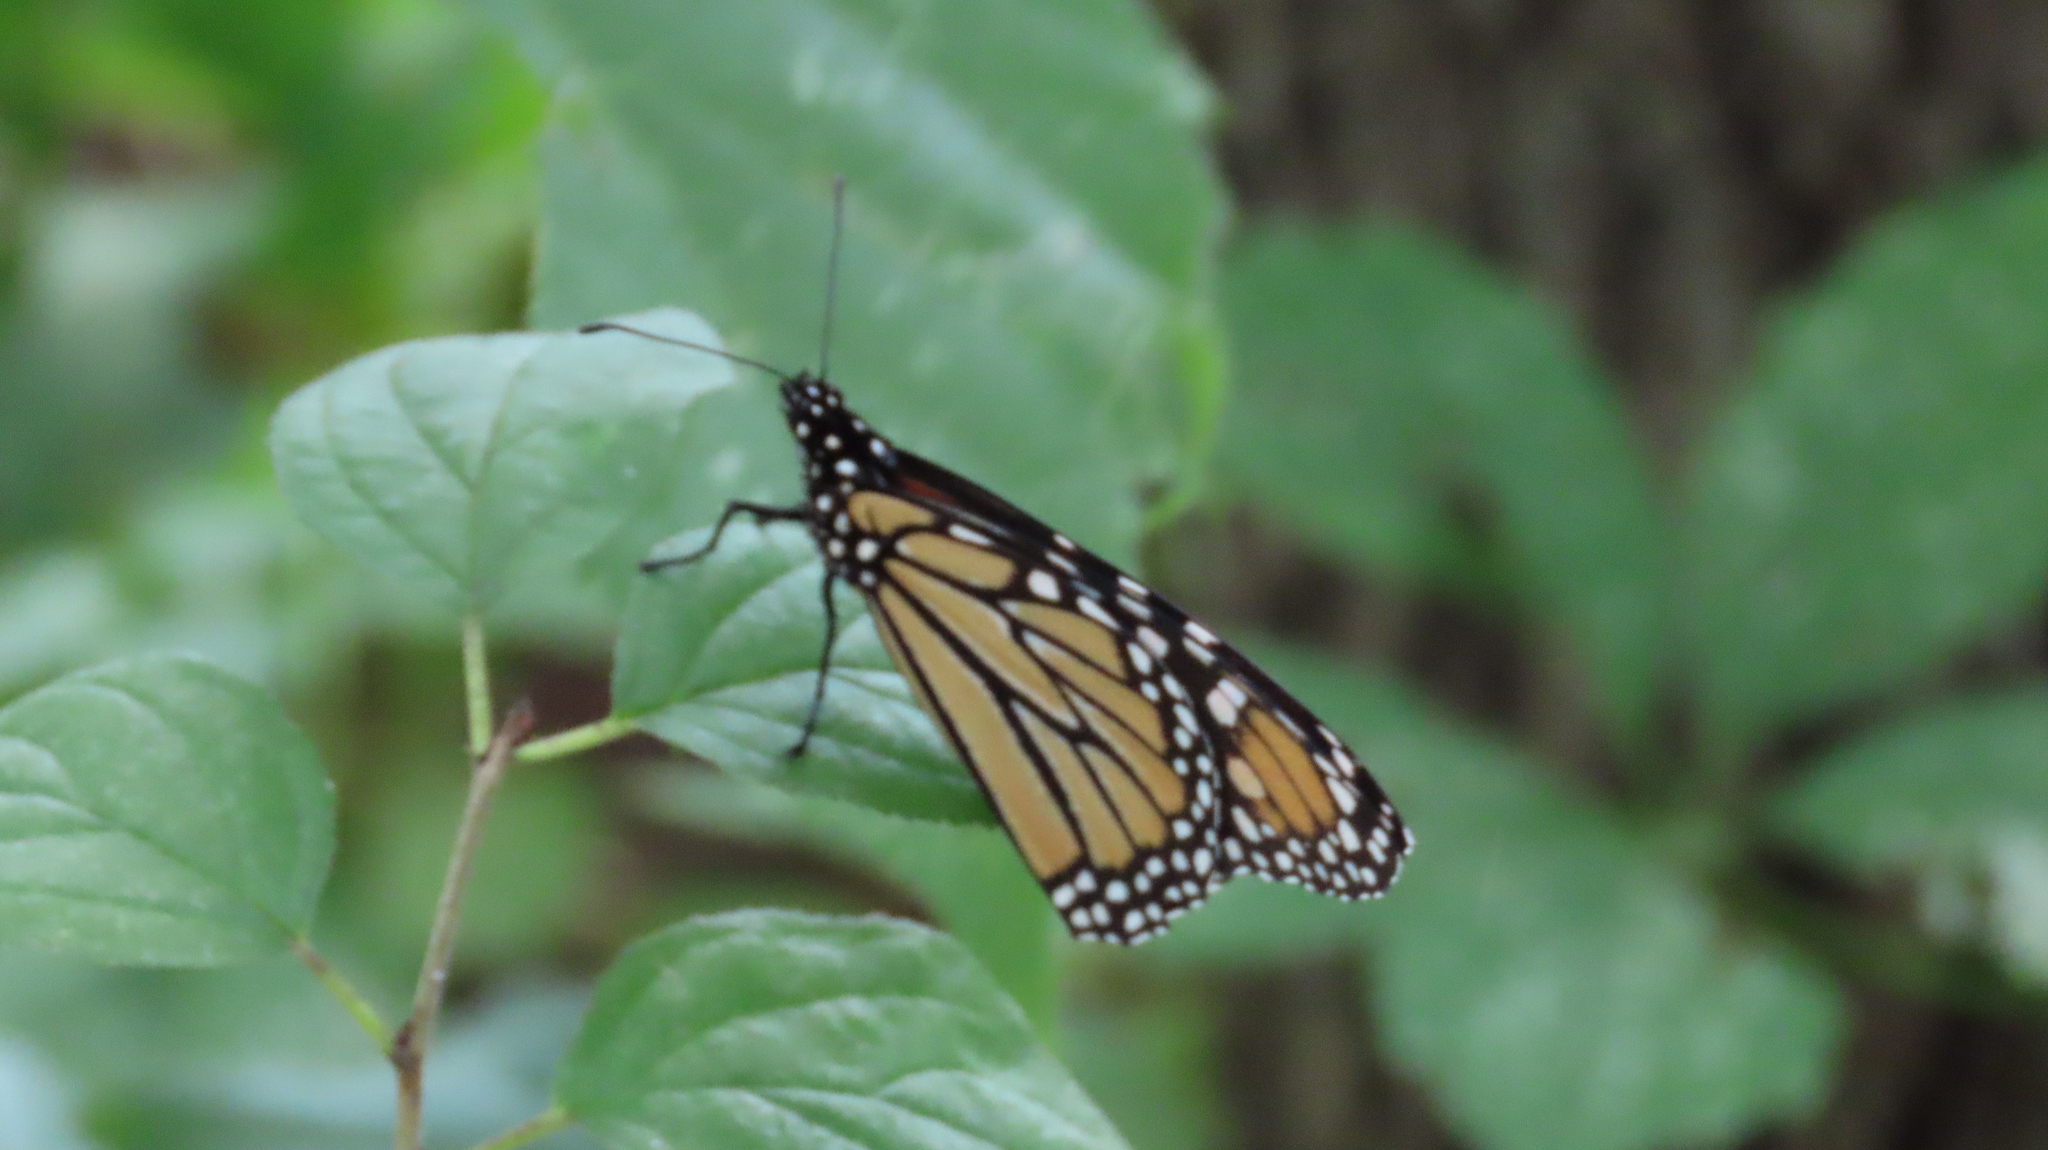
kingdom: Animalia
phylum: Arthropoda
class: Insecta
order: Lepidoptera
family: Nymphalidae
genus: Danaus
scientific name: Danaus plexippus
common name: Monarch
